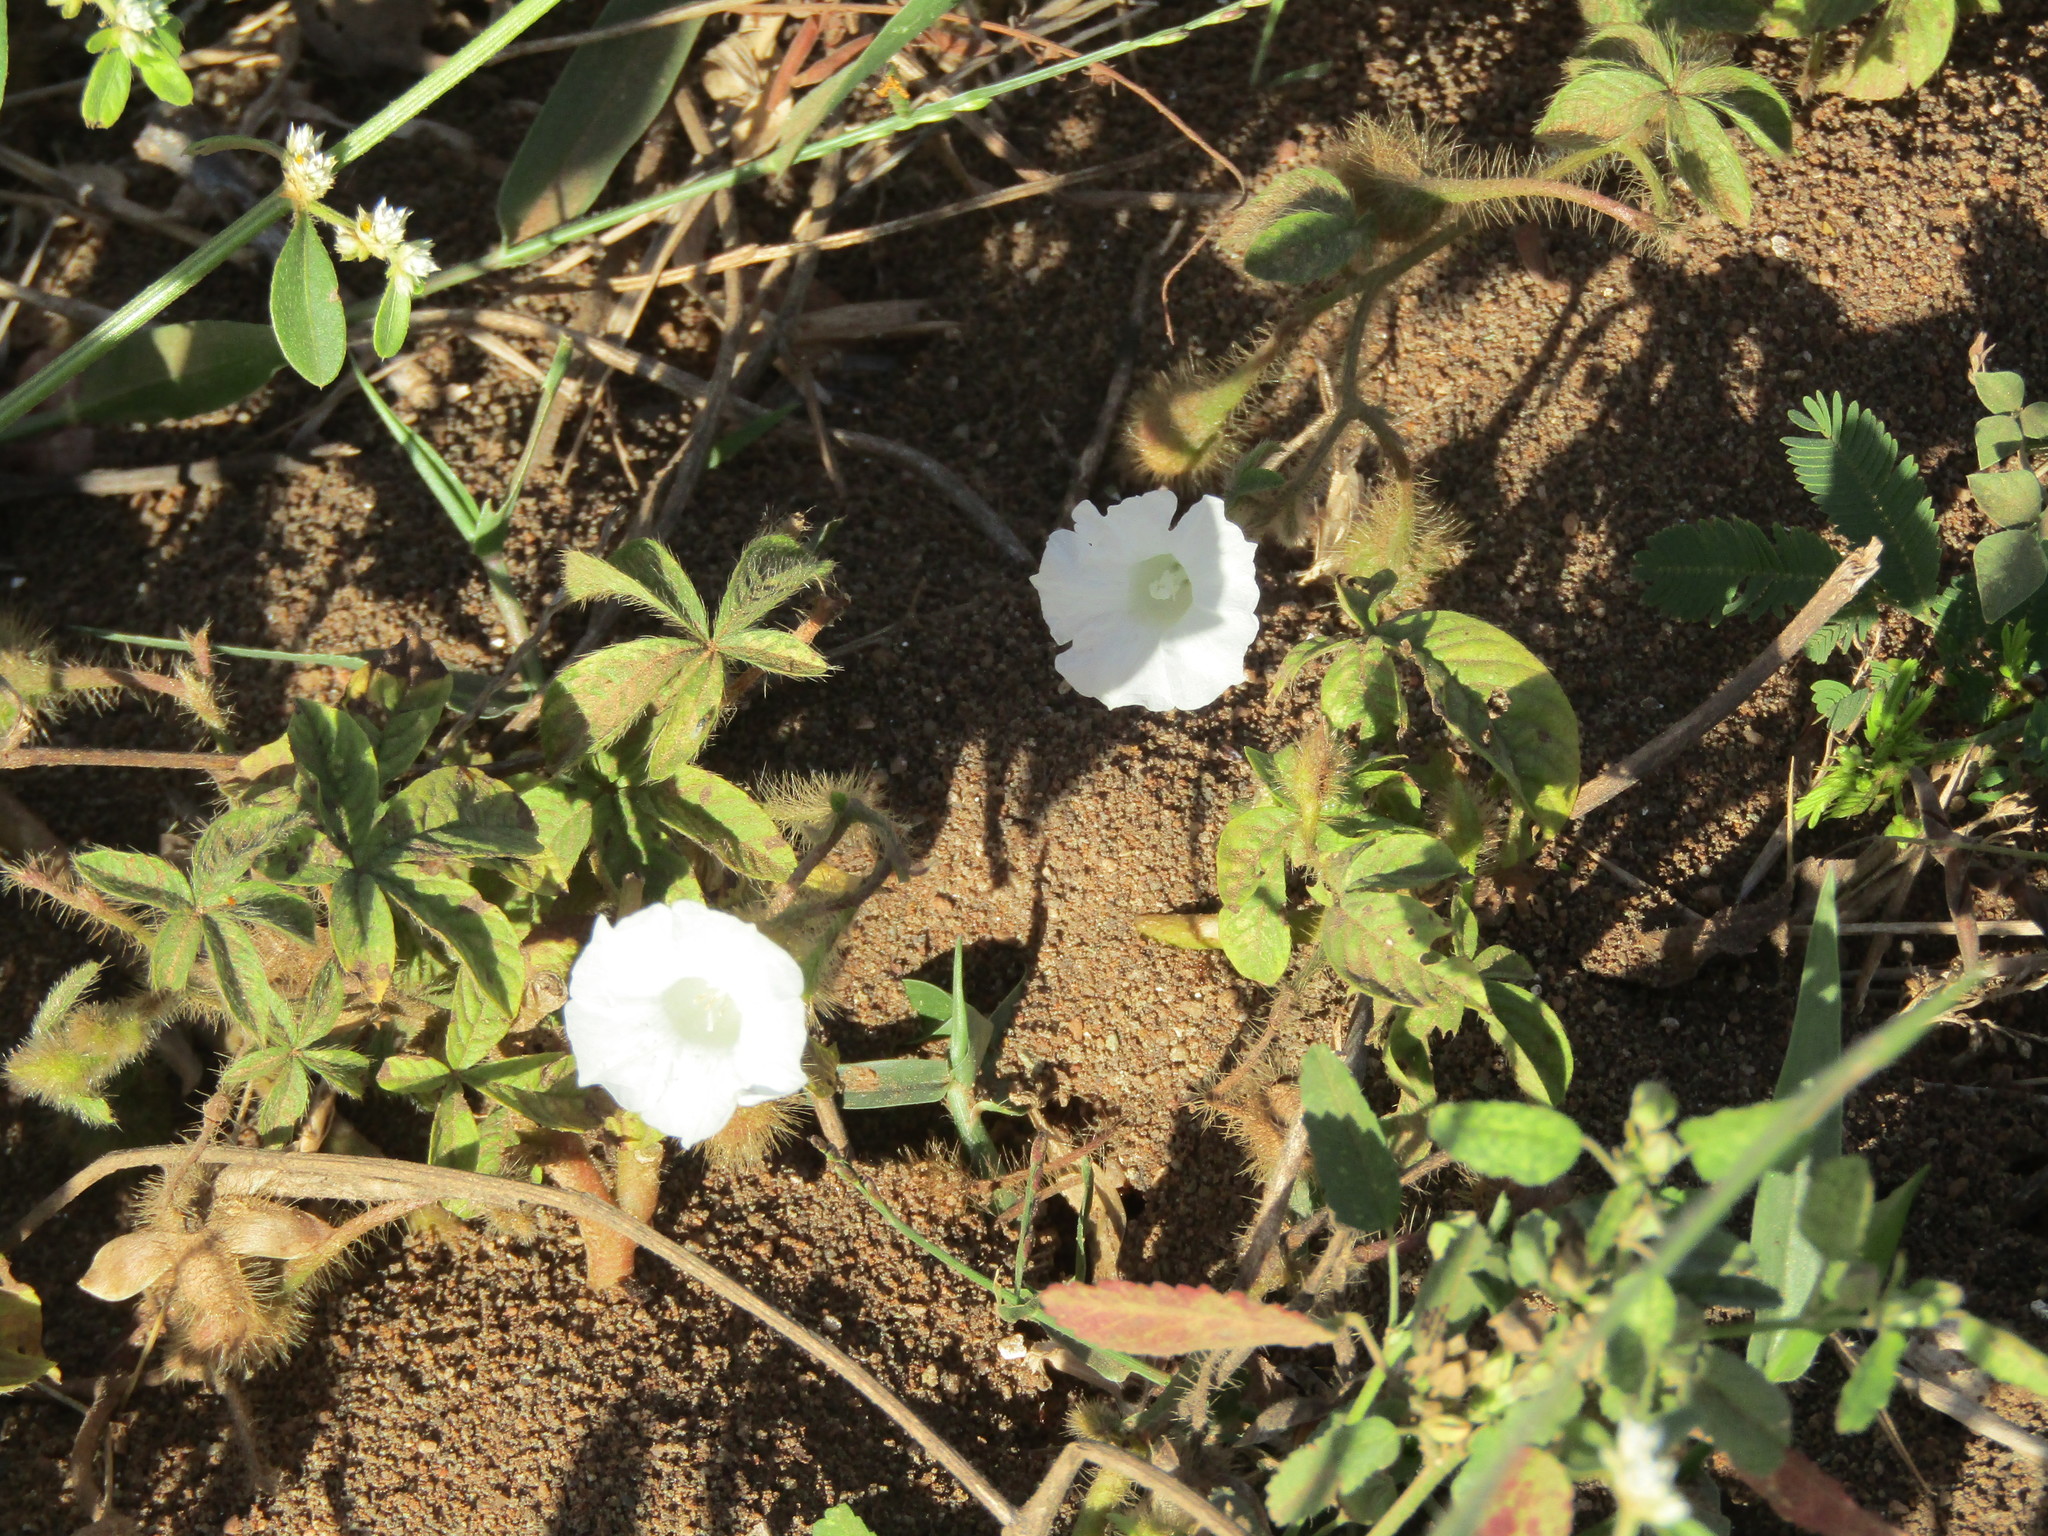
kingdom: Plantae
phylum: Tracheophyta
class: Magnoliopsida
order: Solanales
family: Convolvulaceae
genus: Distimake
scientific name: Distimake aegyptius
